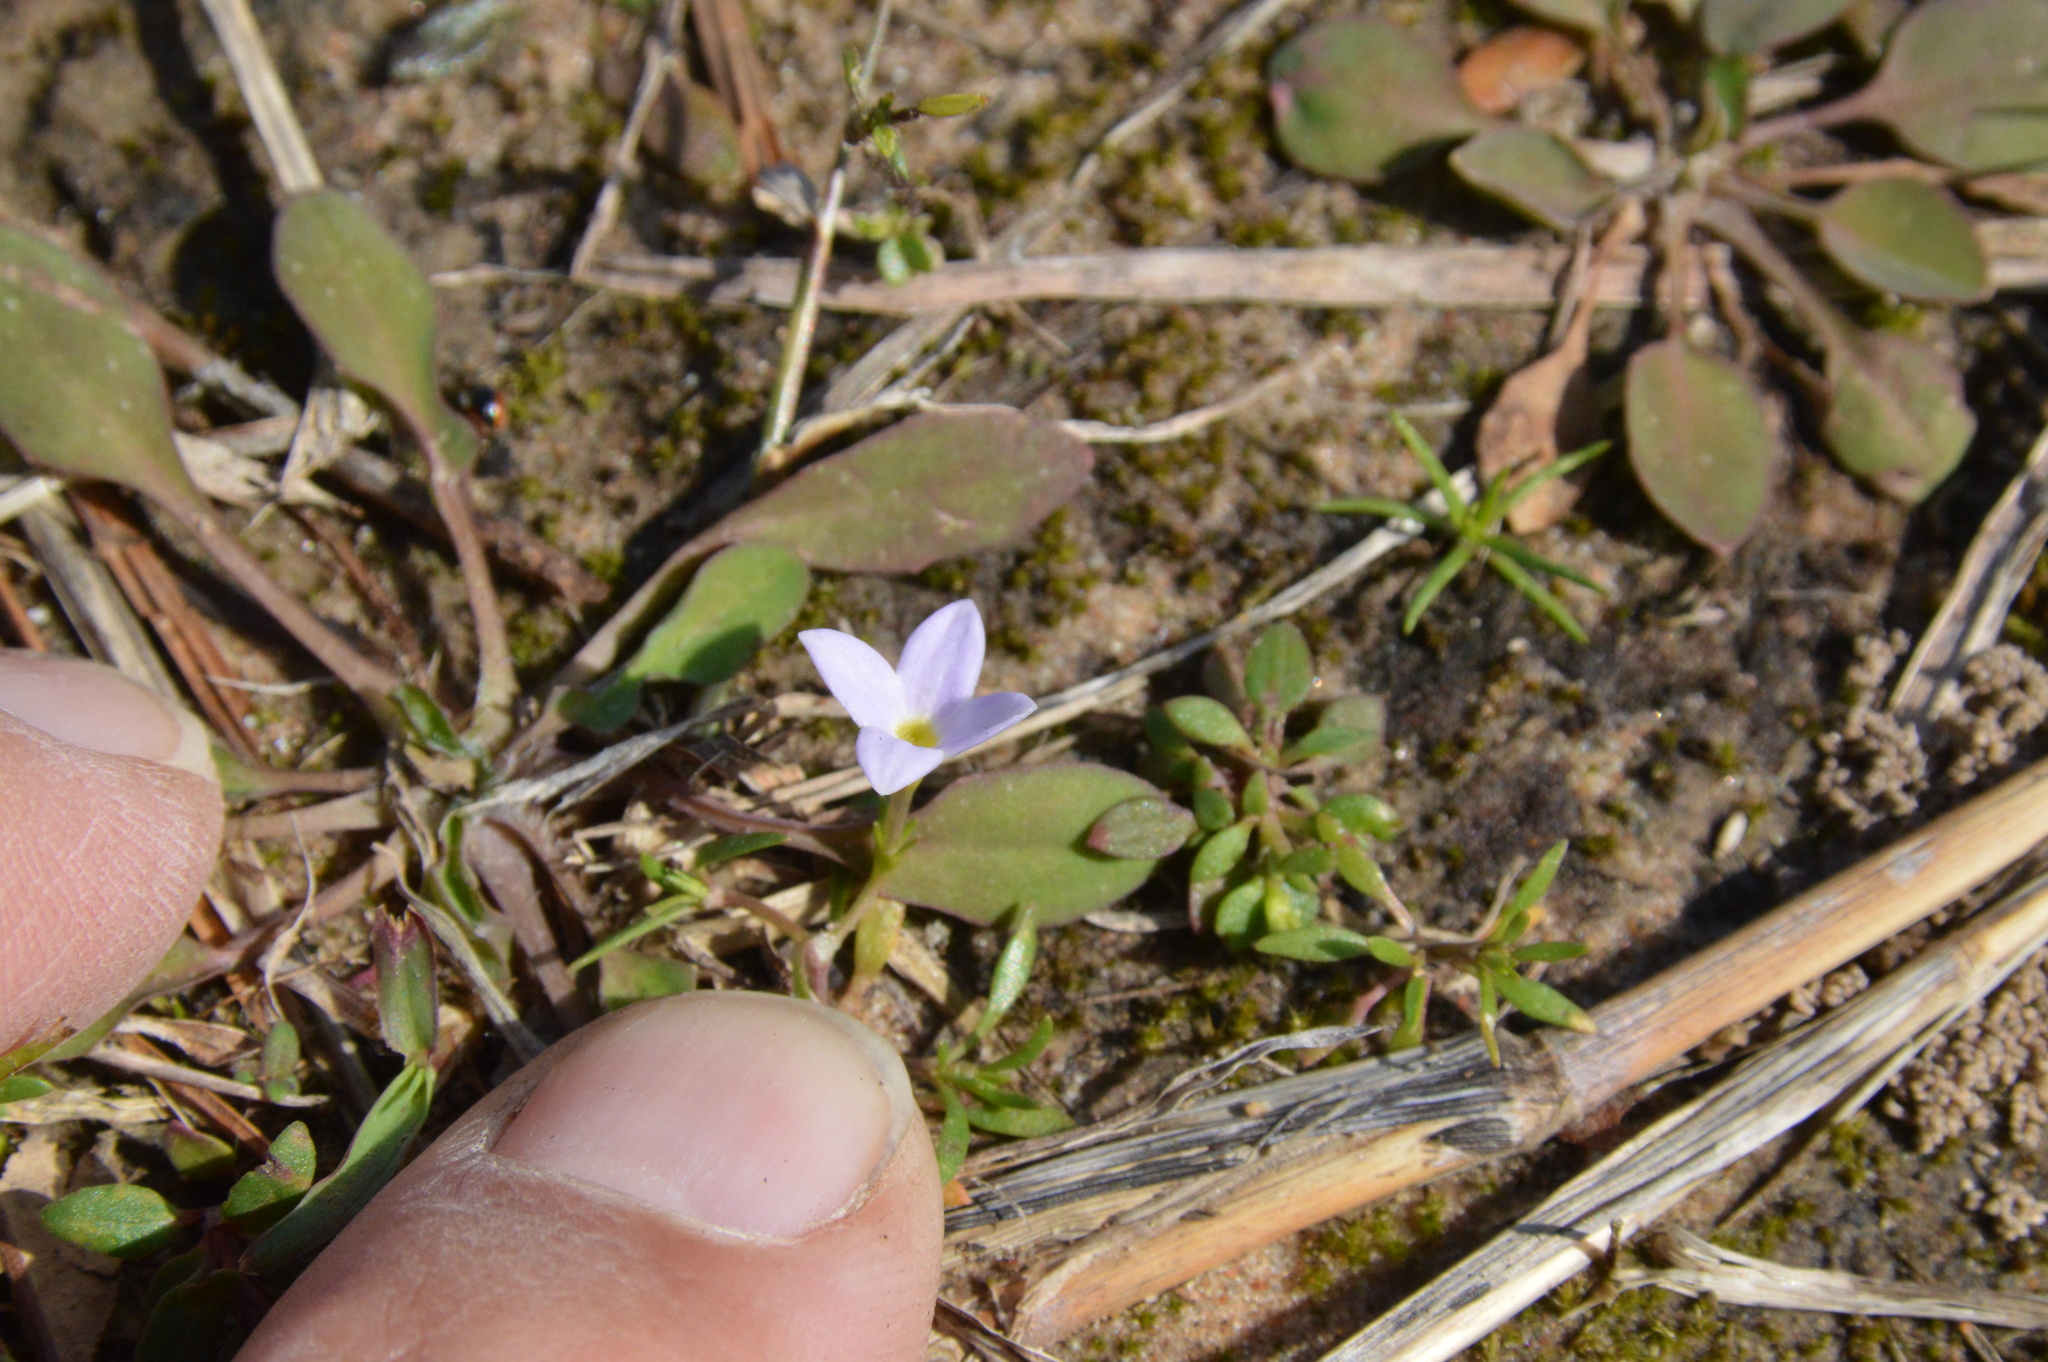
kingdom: Plantae
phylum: Tracheophyta
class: Magnoliopsida
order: Gentianales
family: Rubiaceae
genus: Houstonia
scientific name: Houstonia rosea
